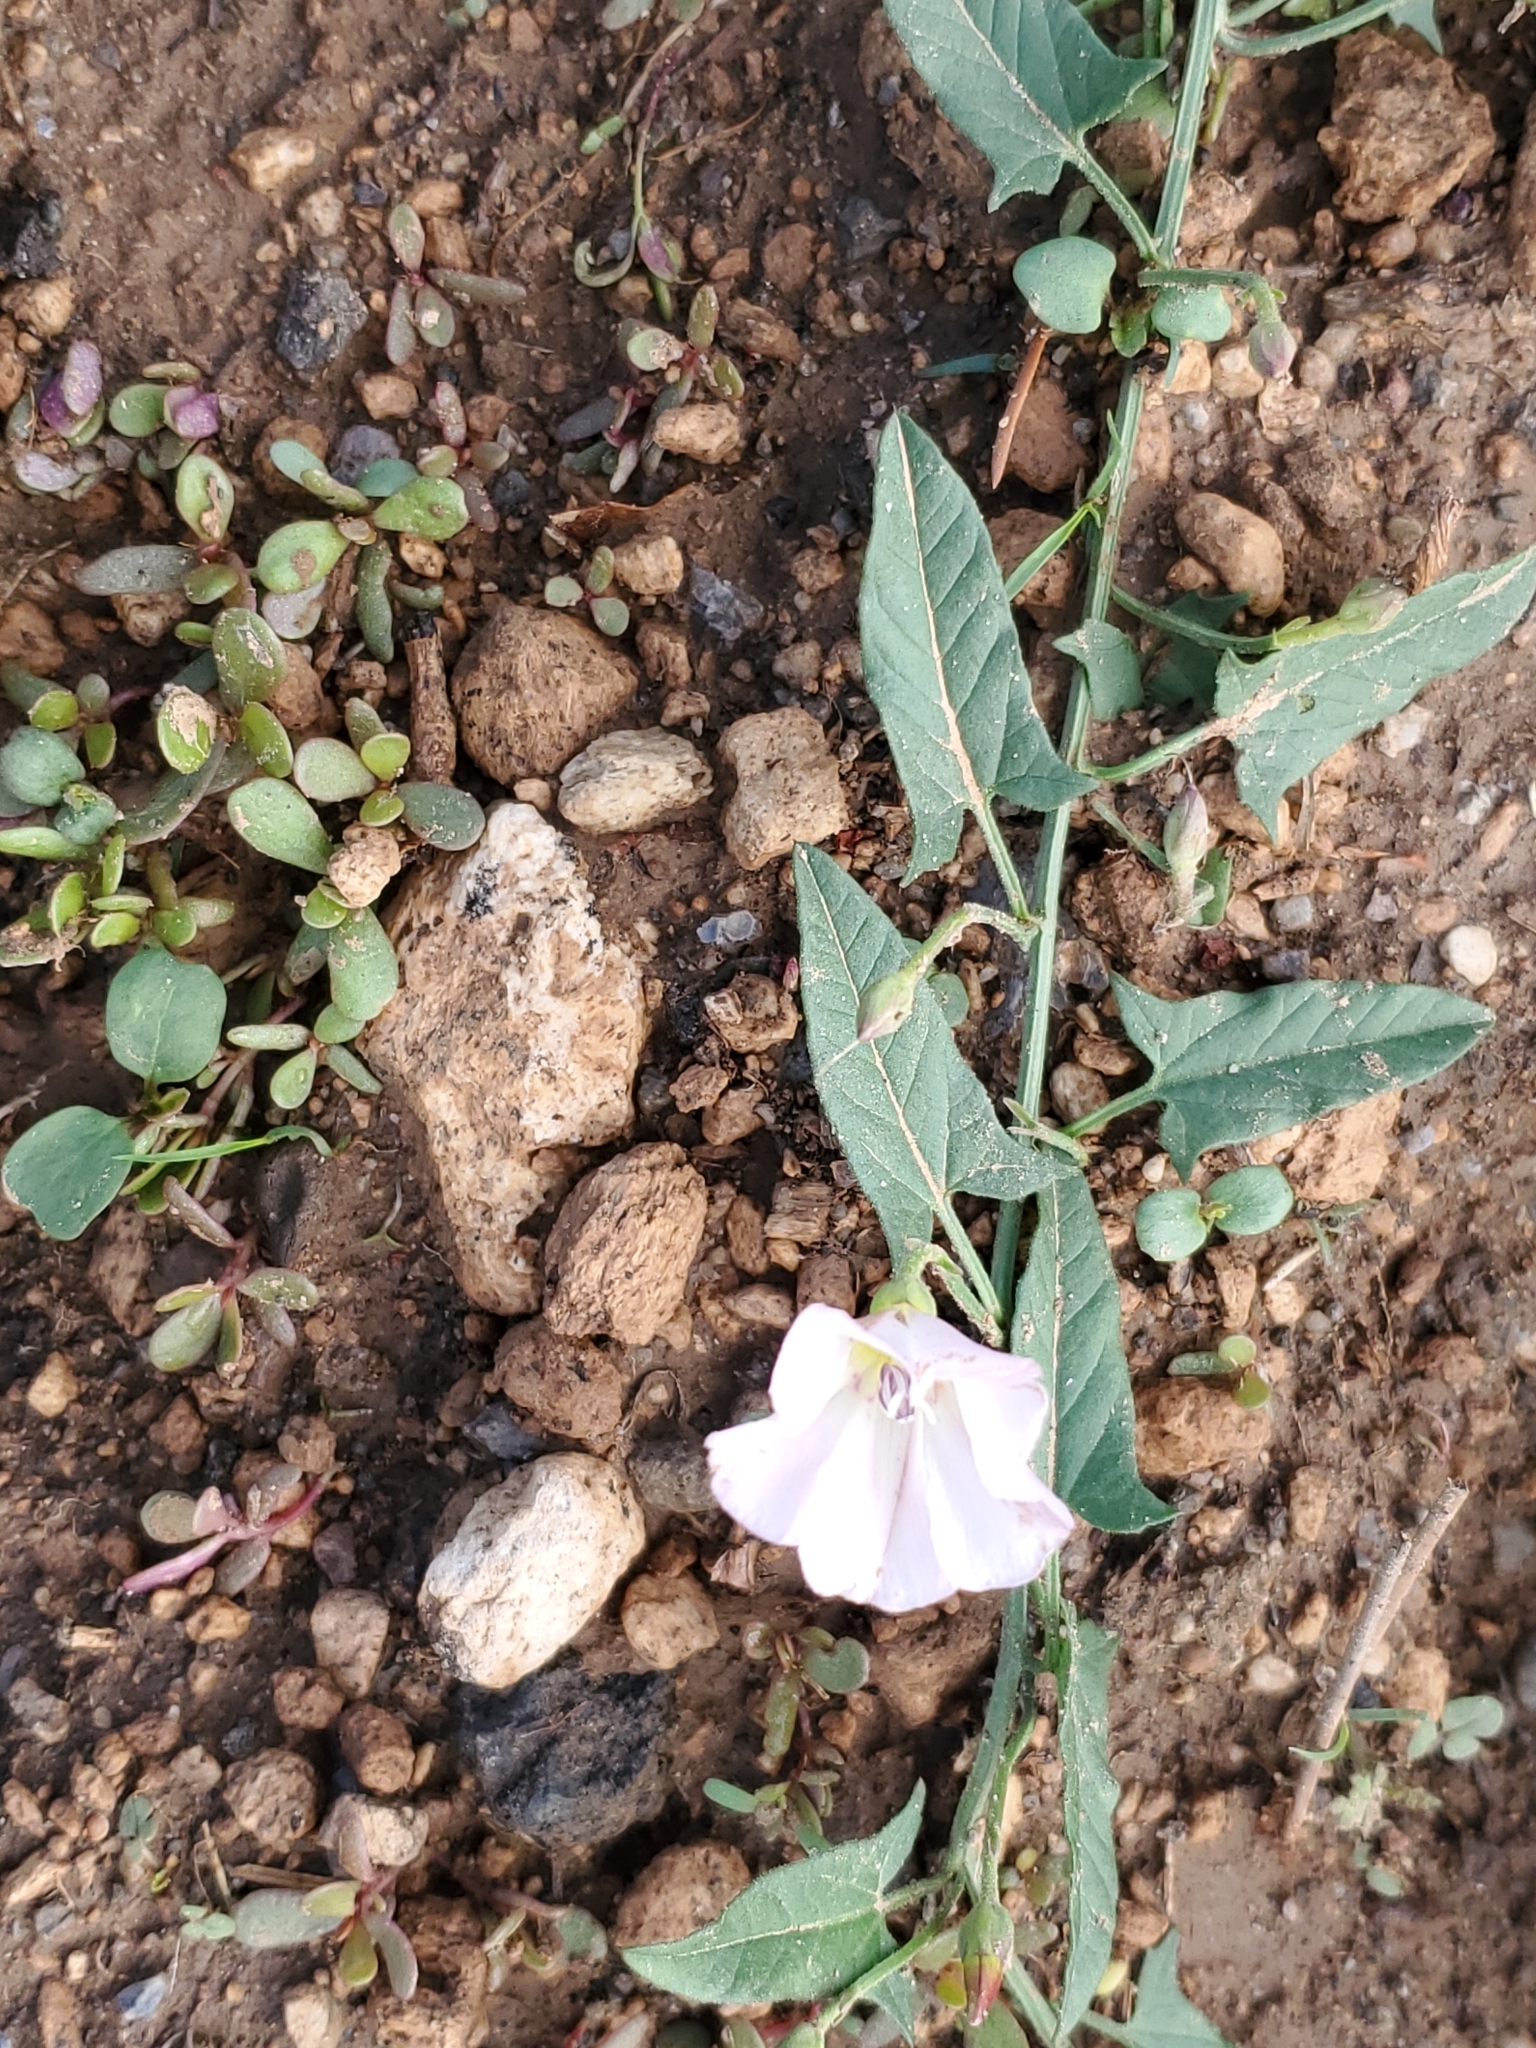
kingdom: Plantae
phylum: Tracheophyta
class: Magnoliopsida
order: Solanales
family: Convolvulaceae
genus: Convolvulus
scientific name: Convolvulus arvensis
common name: Field bindweed
